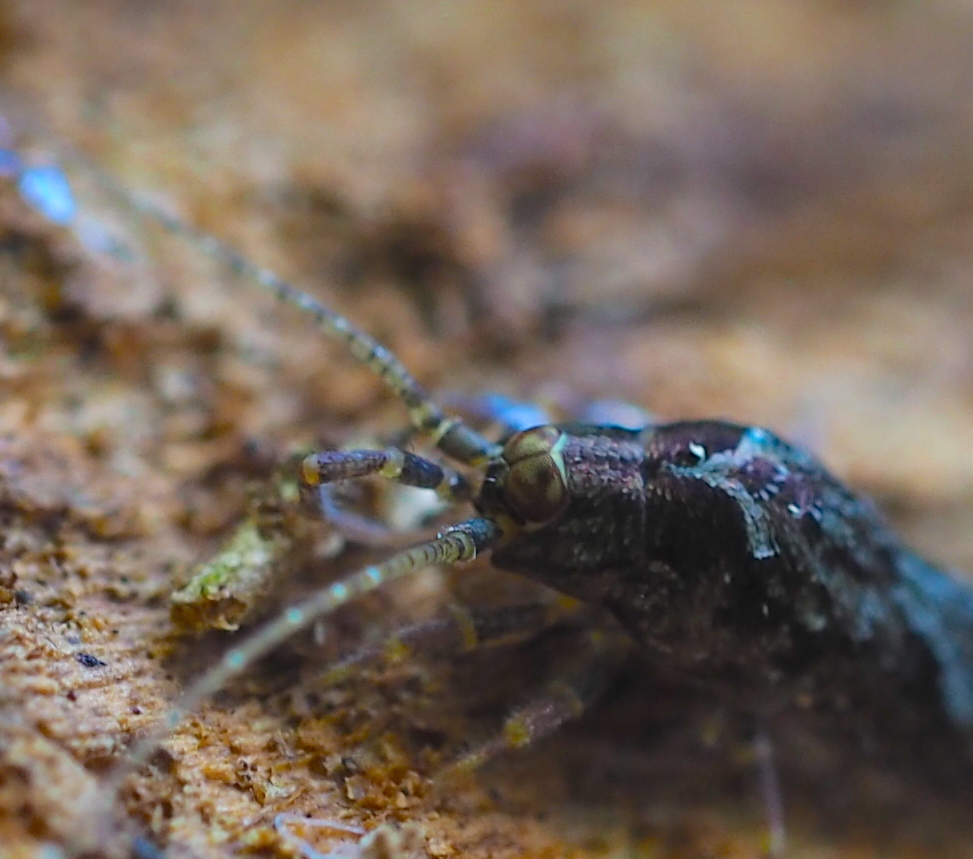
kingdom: Animalia
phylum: Arthropoda
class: Insecta
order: Archaeognatha
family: Machilidae
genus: Lepismachilis
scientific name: Lepismachilis y-signata
